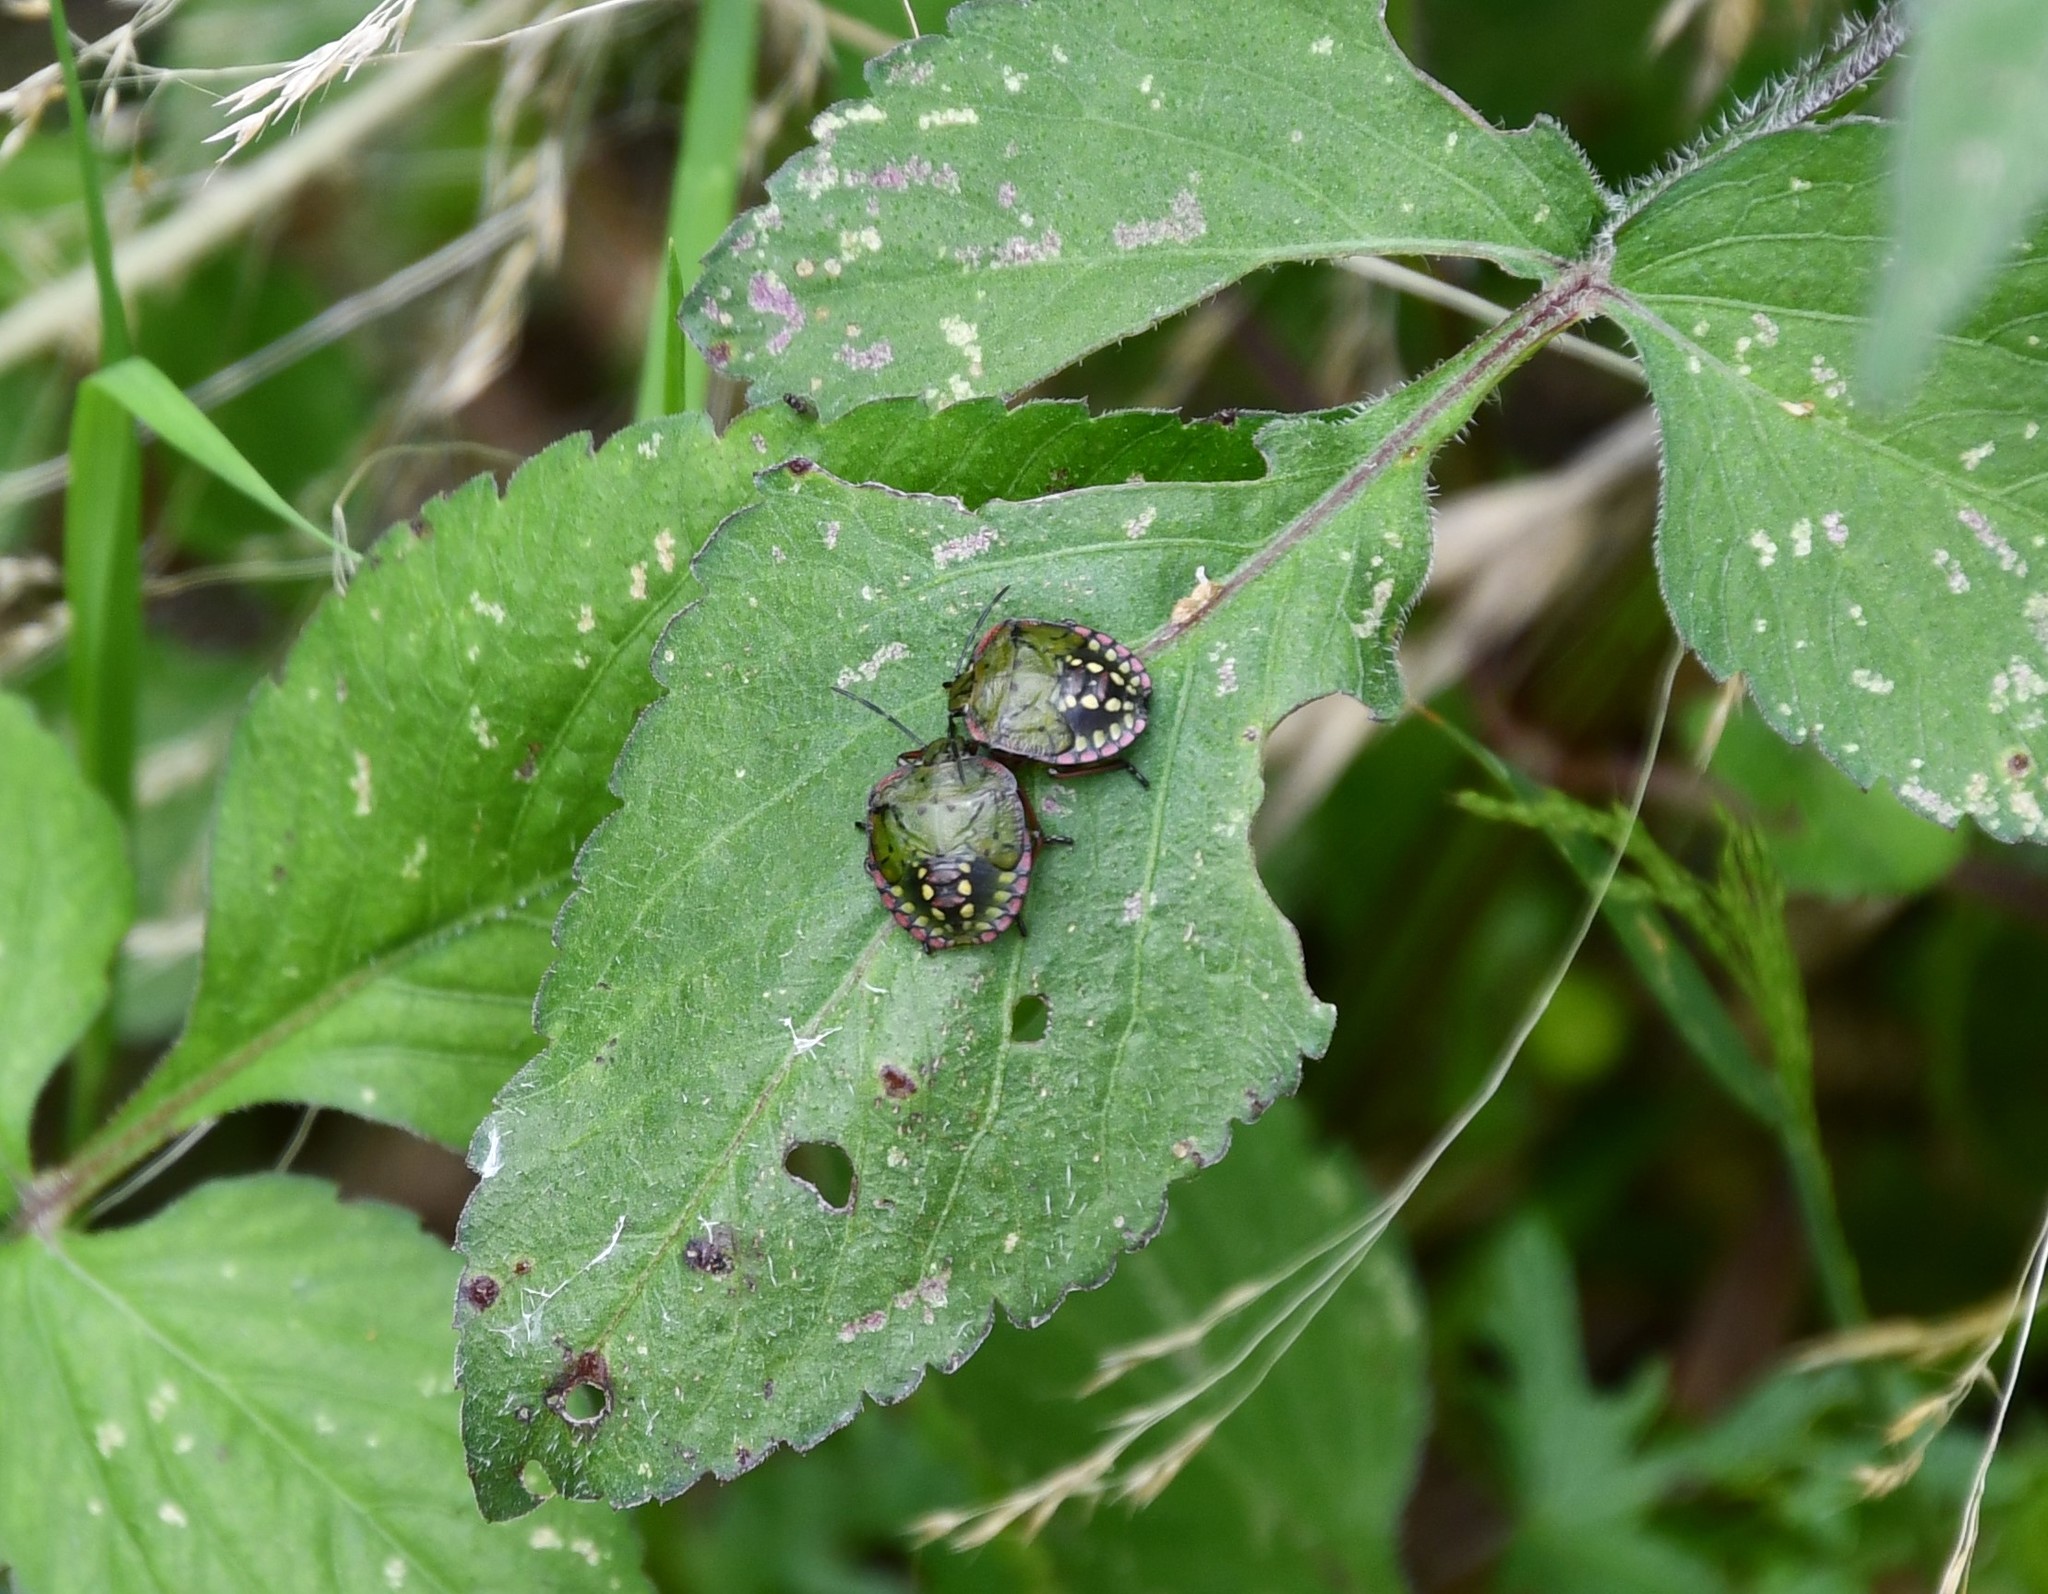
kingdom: Animalia
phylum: Arthropoda
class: Insecta
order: Hemiptera
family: Pentatomidae
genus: Nezara
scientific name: Nezara viridula
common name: Southern green stink bug
